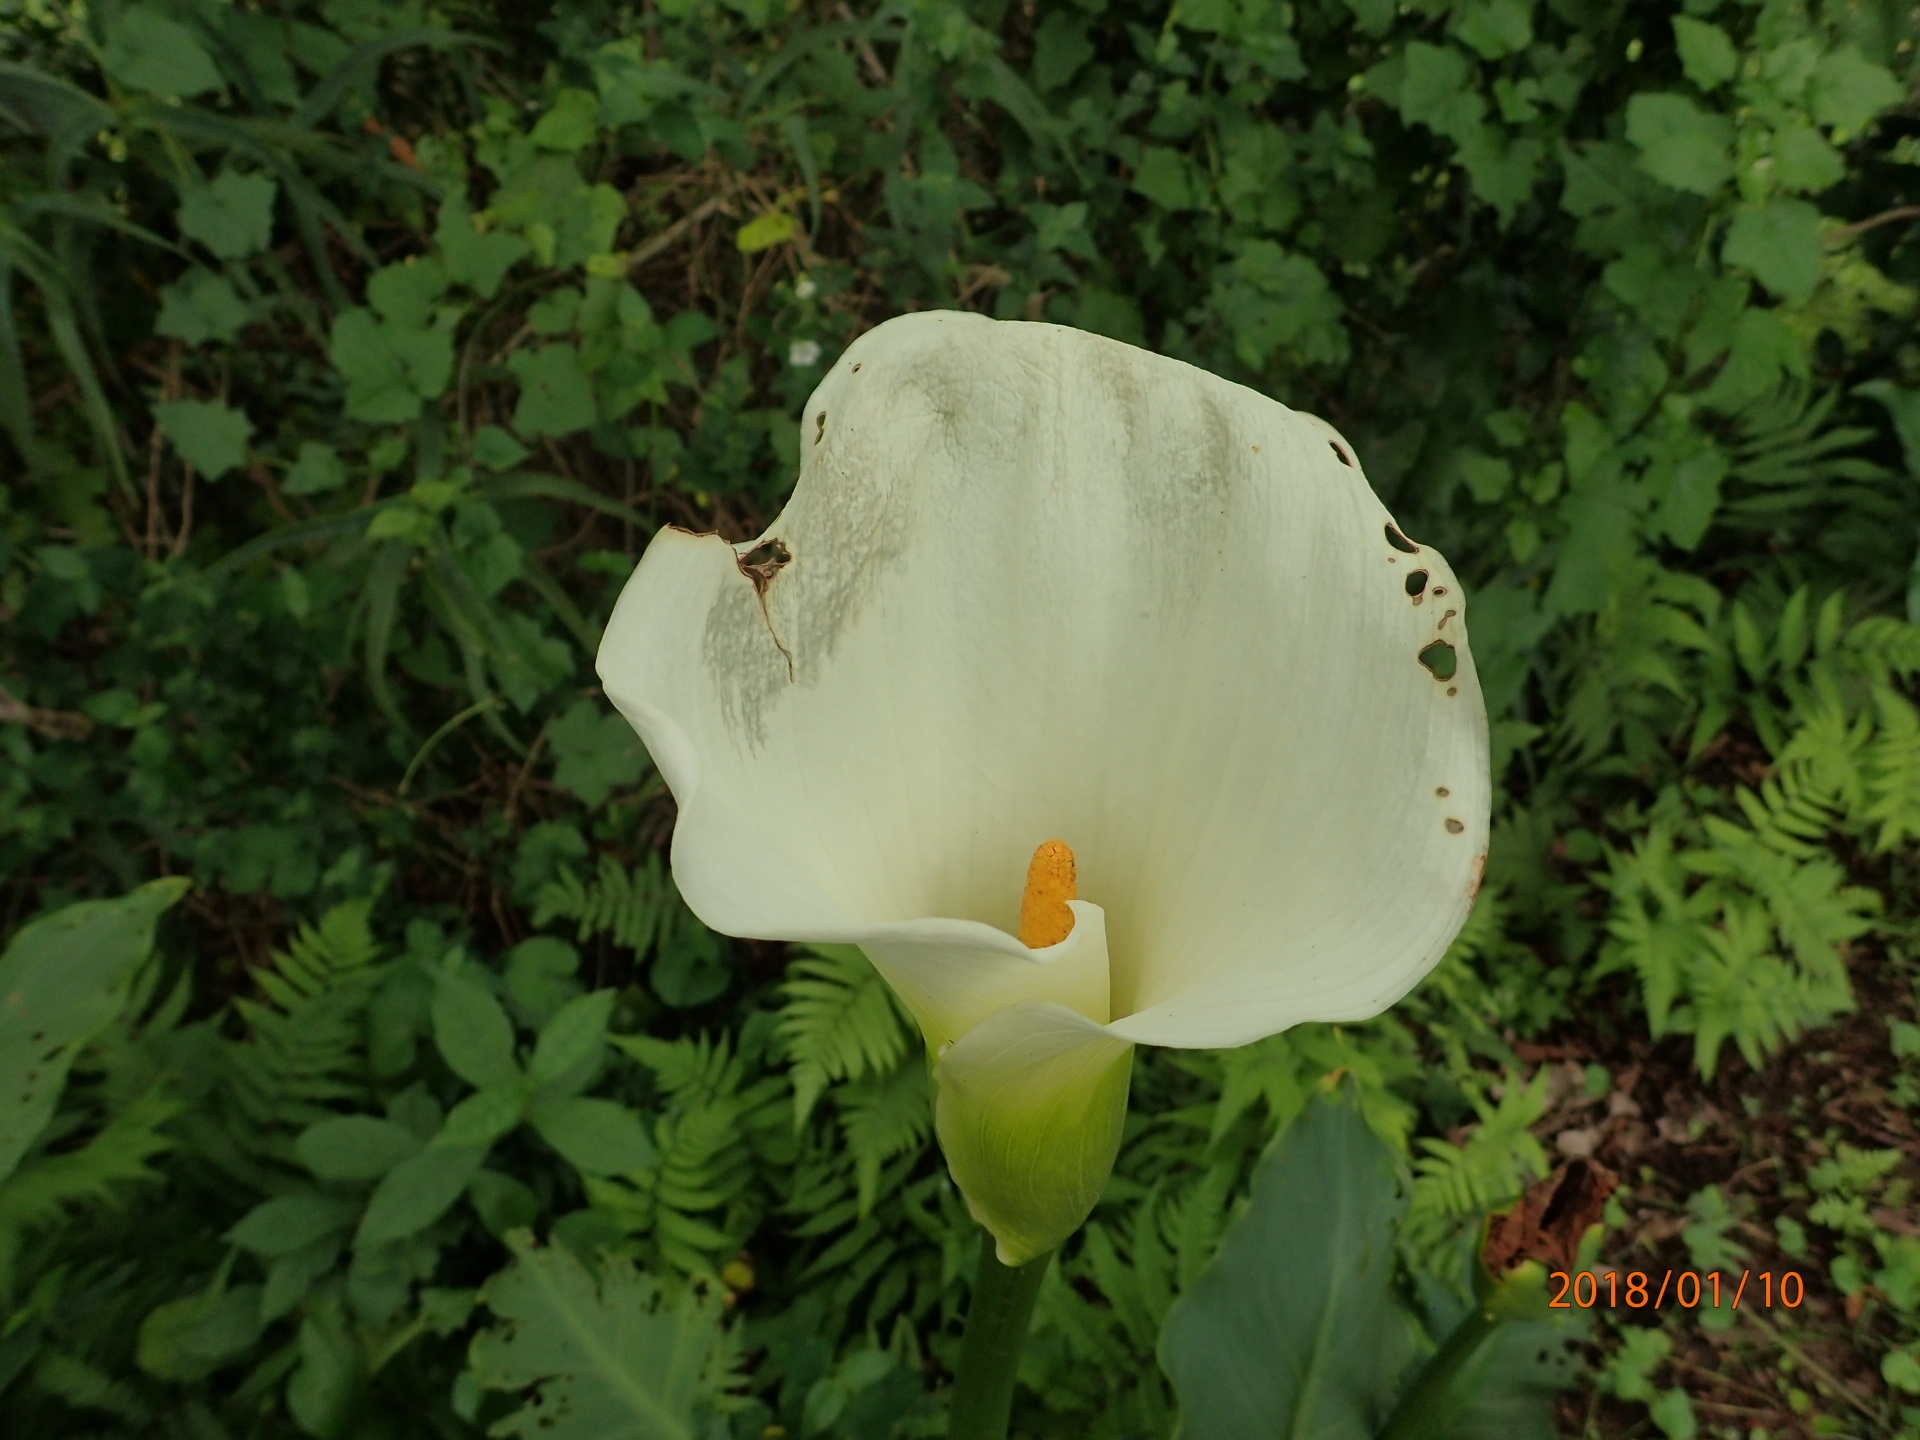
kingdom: Plantae
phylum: Tracheophyta
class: Liliopsida
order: Alismatales
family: Araceae
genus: Zantedeschia
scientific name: Zantedeschia aethiopica
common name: Altar-lily
